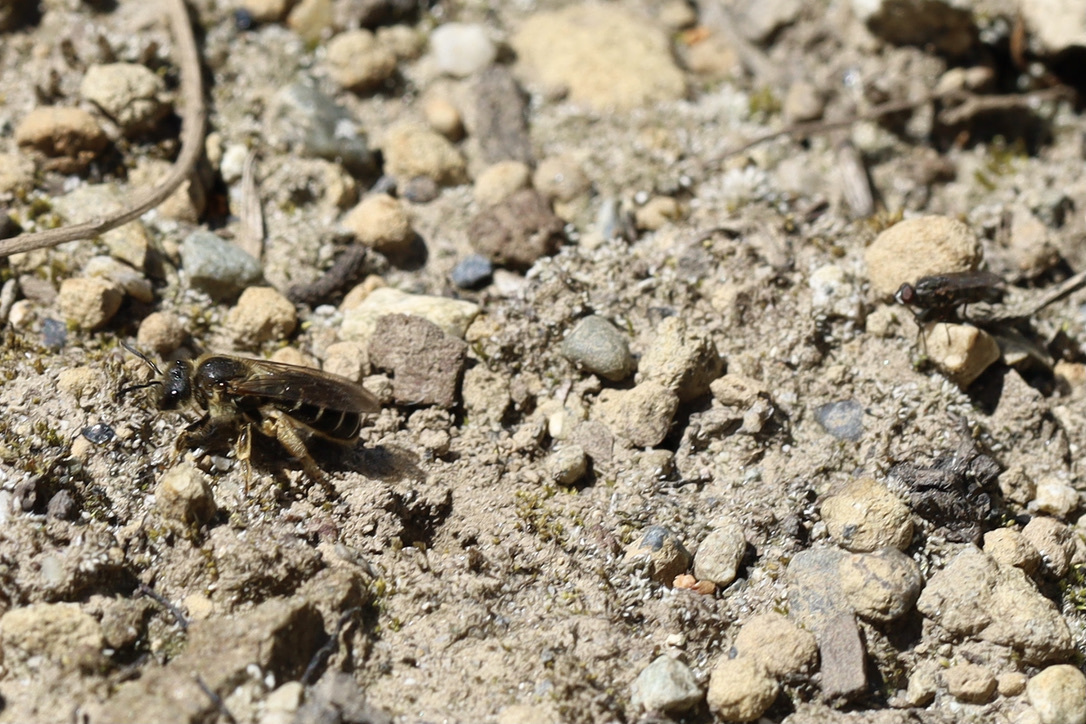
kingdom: Animalia
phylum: Arthropoda
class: Insecta
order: Hymenoptera
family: Halictidae
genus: Halictus
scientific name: Halictus rubicundus
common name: Orange-legged furrow bee
